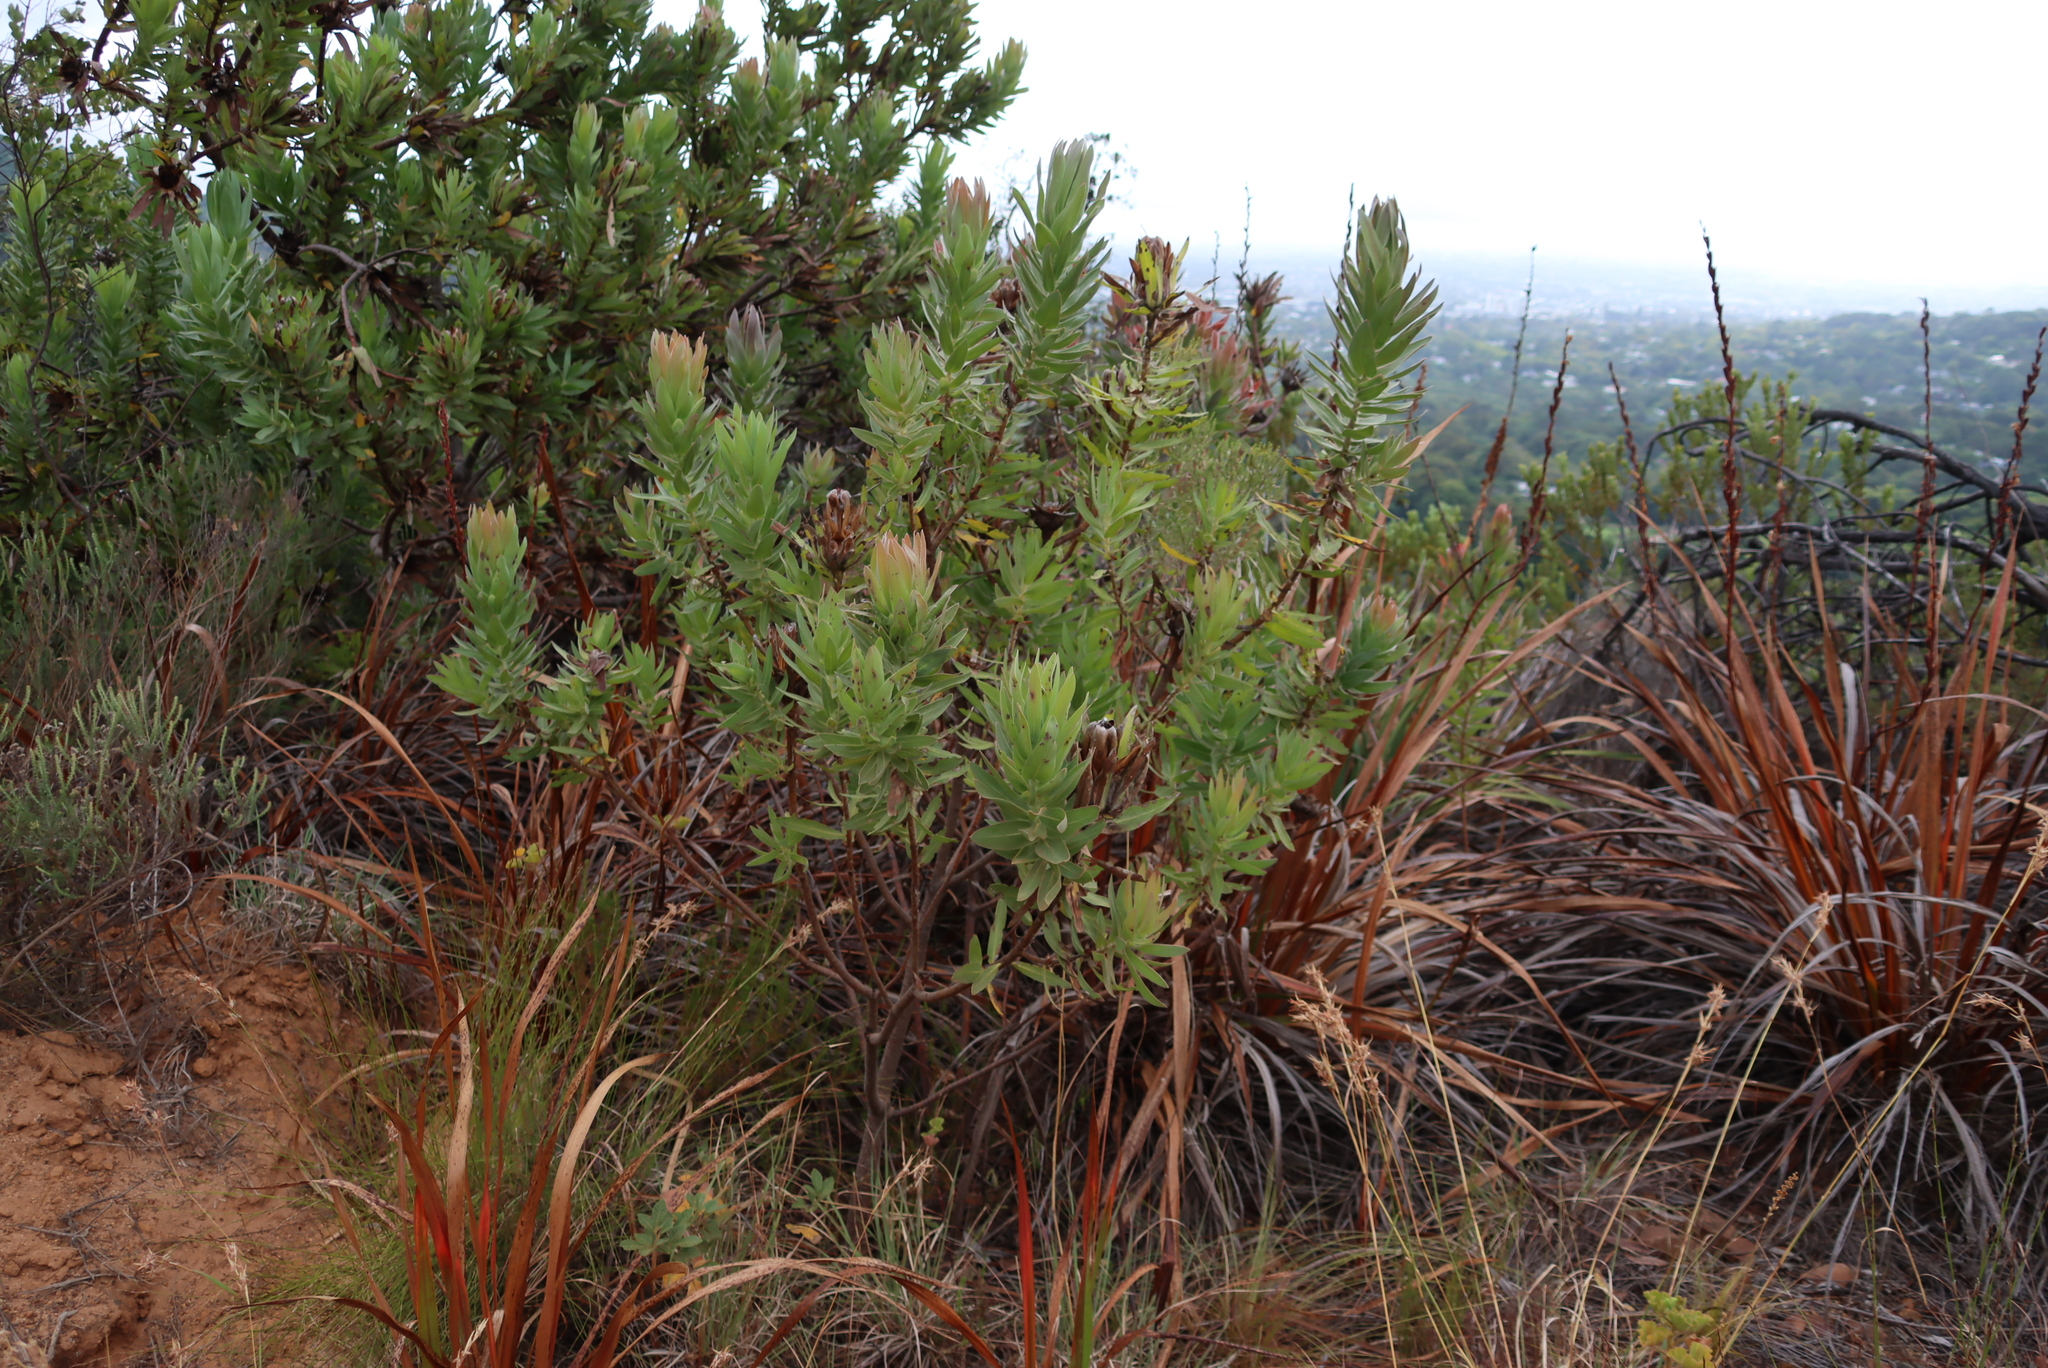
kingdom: Plantae
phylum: Tracheophyta
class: Magnoliopsida
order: Proteales
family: Proteaceae
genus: Protea
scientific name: Protea coronata
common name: Green sugarbush
